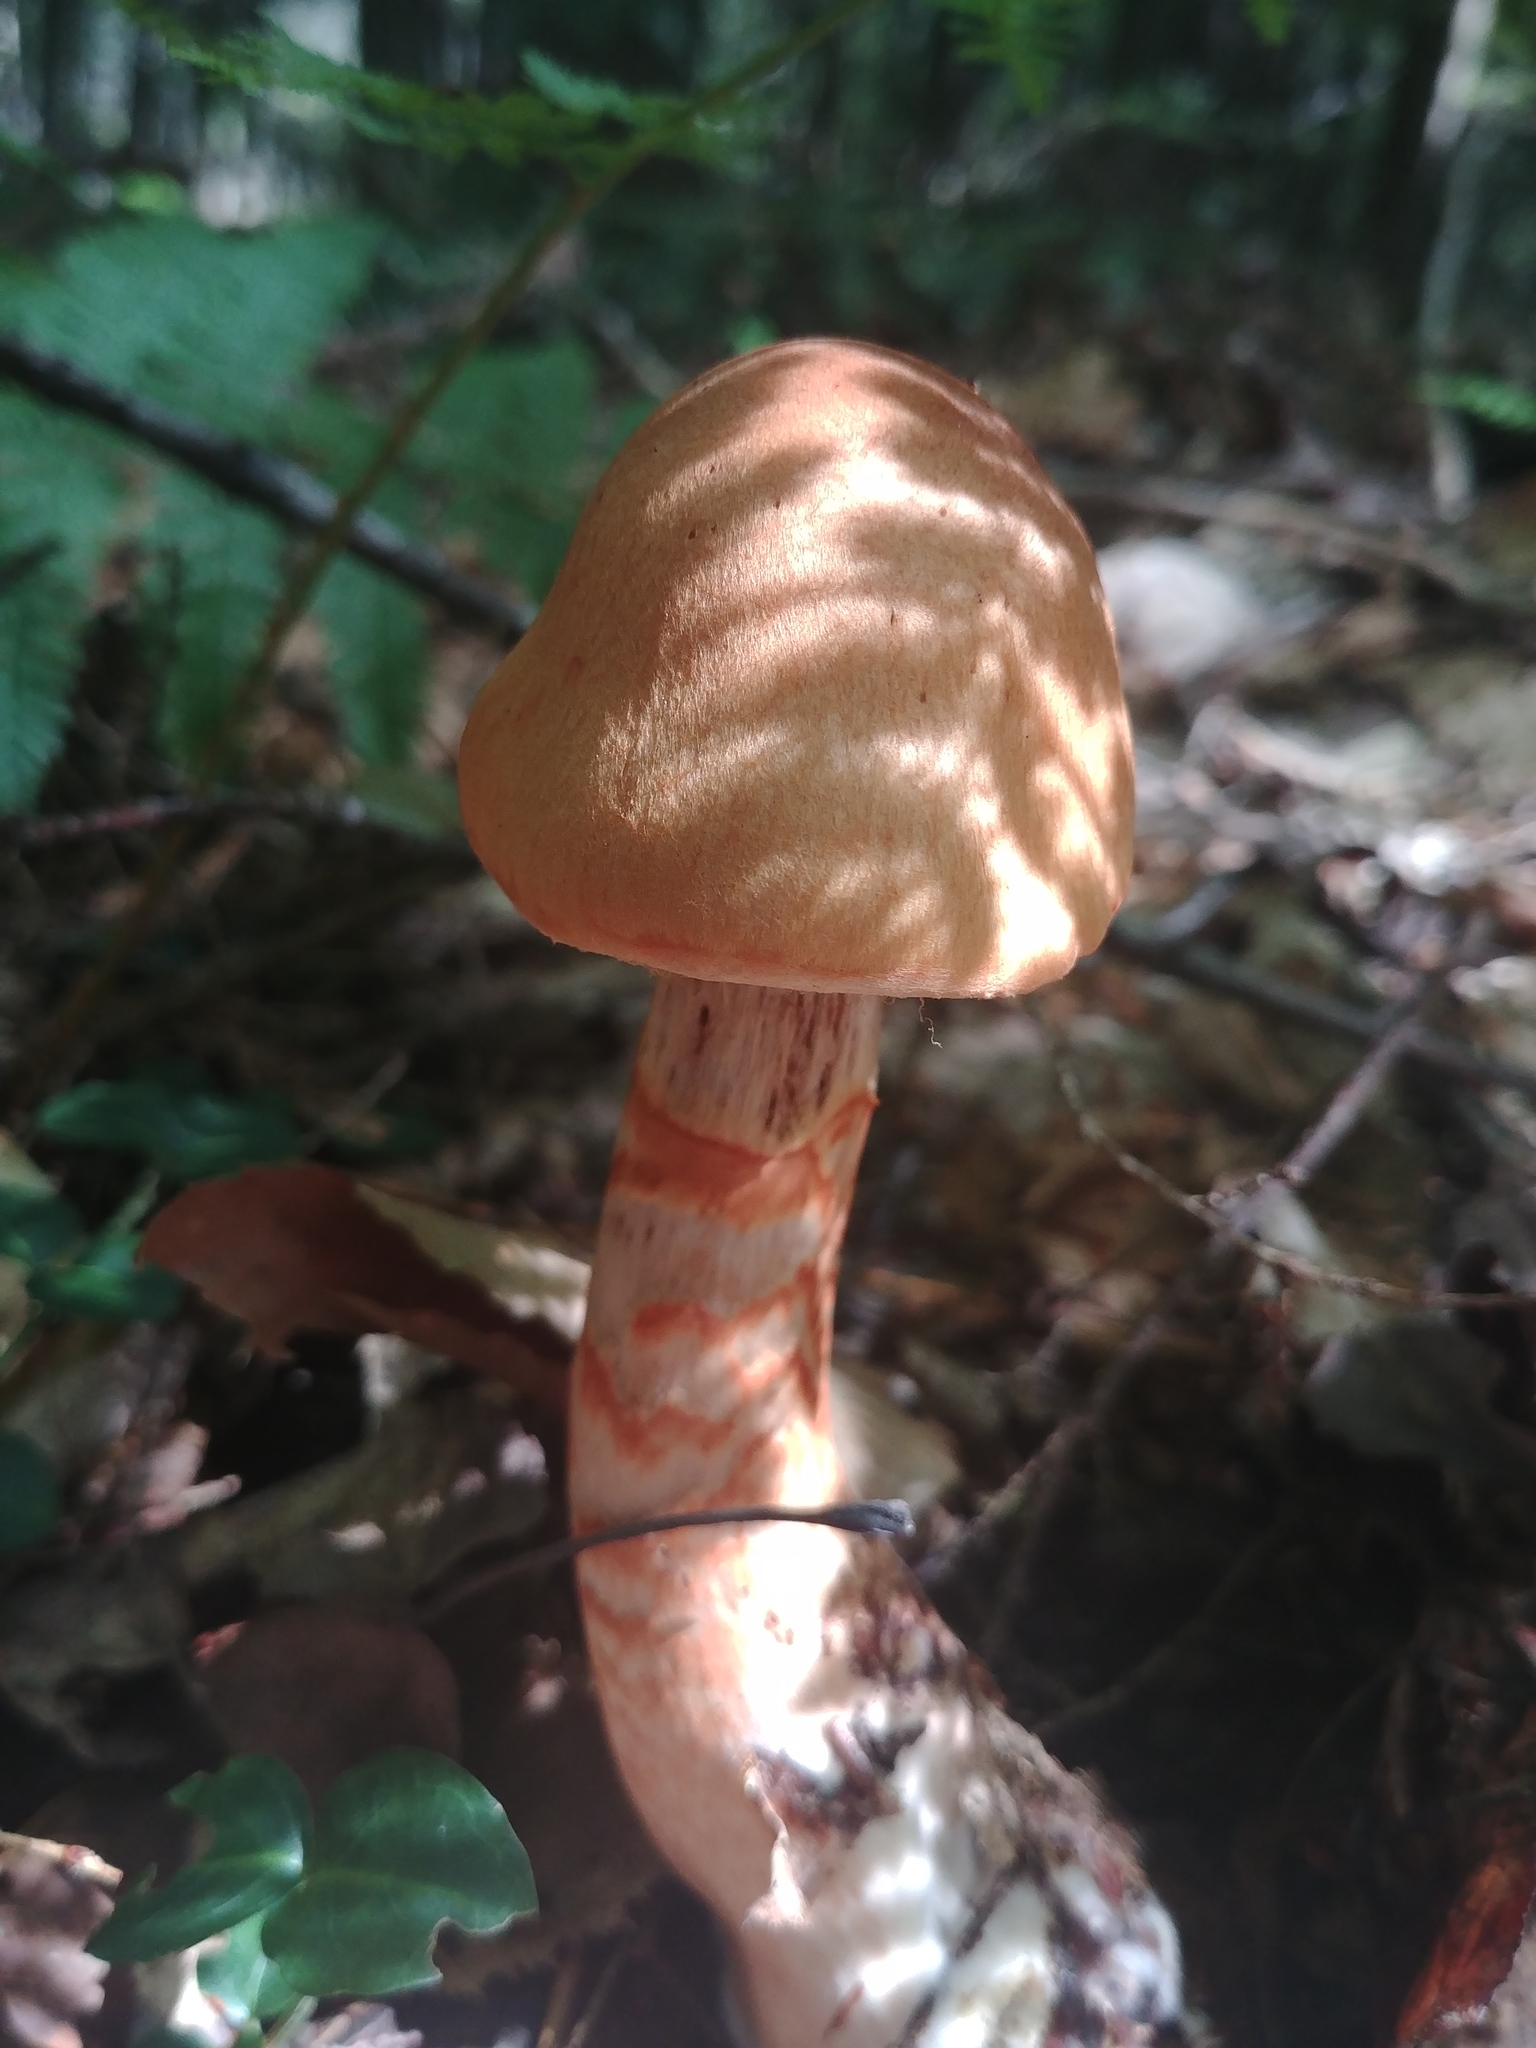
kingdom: Fungi
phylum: Basidiomycota
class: Agaricomycetes
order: Agaricales
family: Cortinariaceae
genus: Cortinarius
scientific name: Cortinarius armillatus
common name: Red banded webcap
